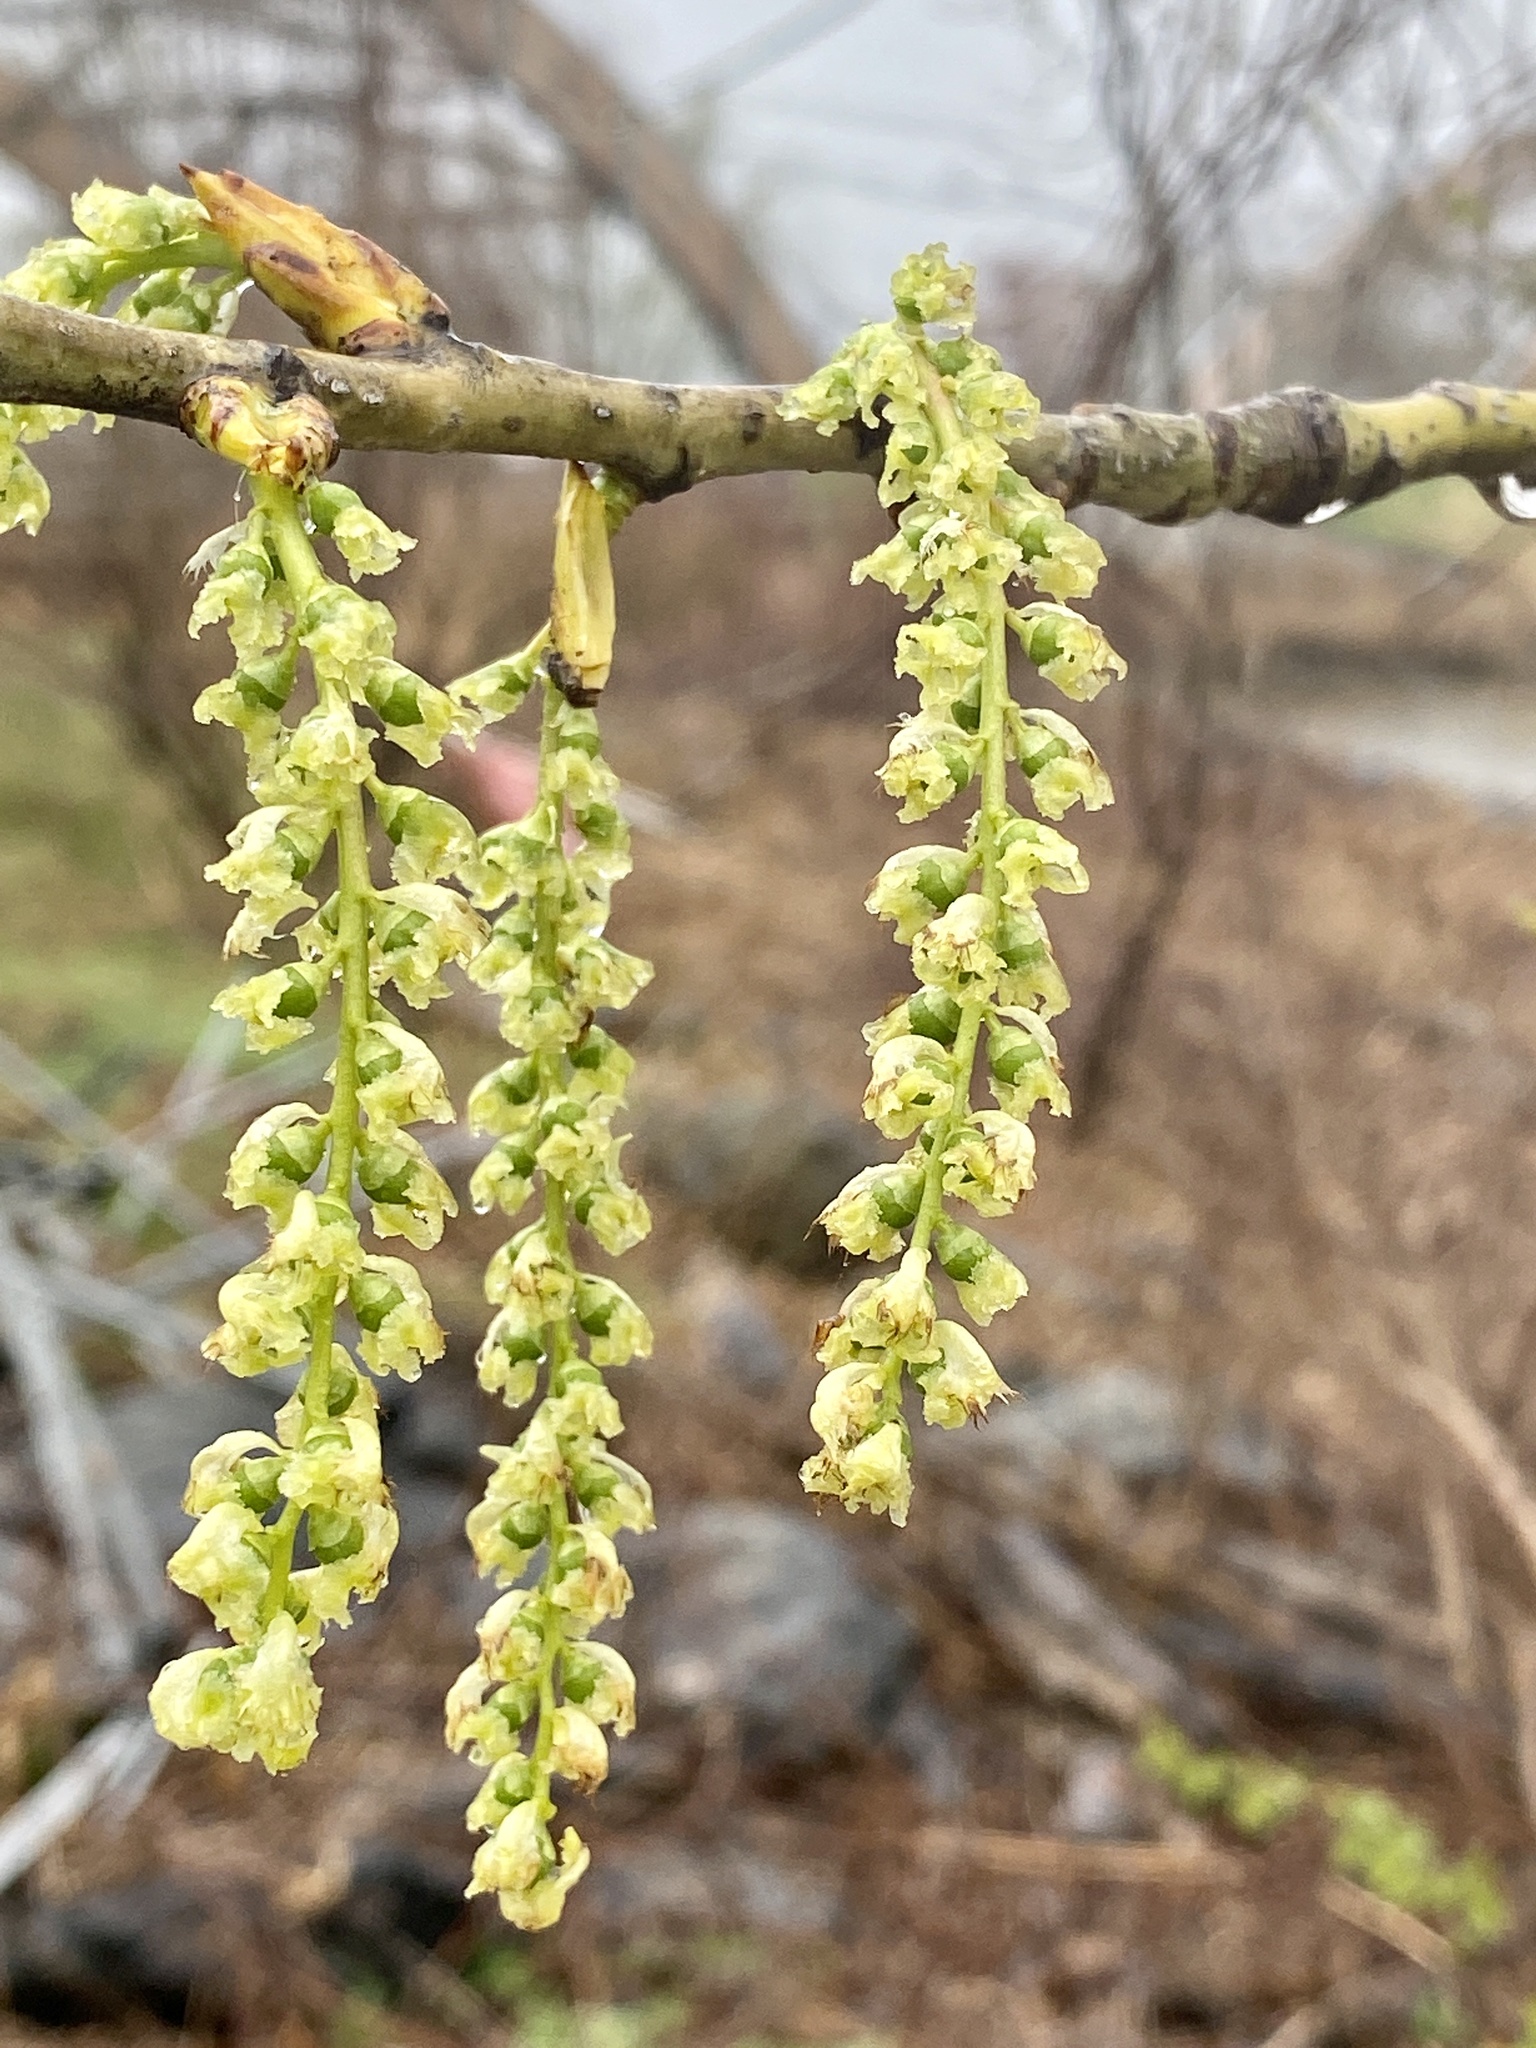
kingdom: Plantae
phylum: Tracheophyta
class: Magnoliopsida
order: Malpighiales
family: Salicaceae
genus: Populus
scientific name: Populus deltoides
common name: Eastern cottonwood
